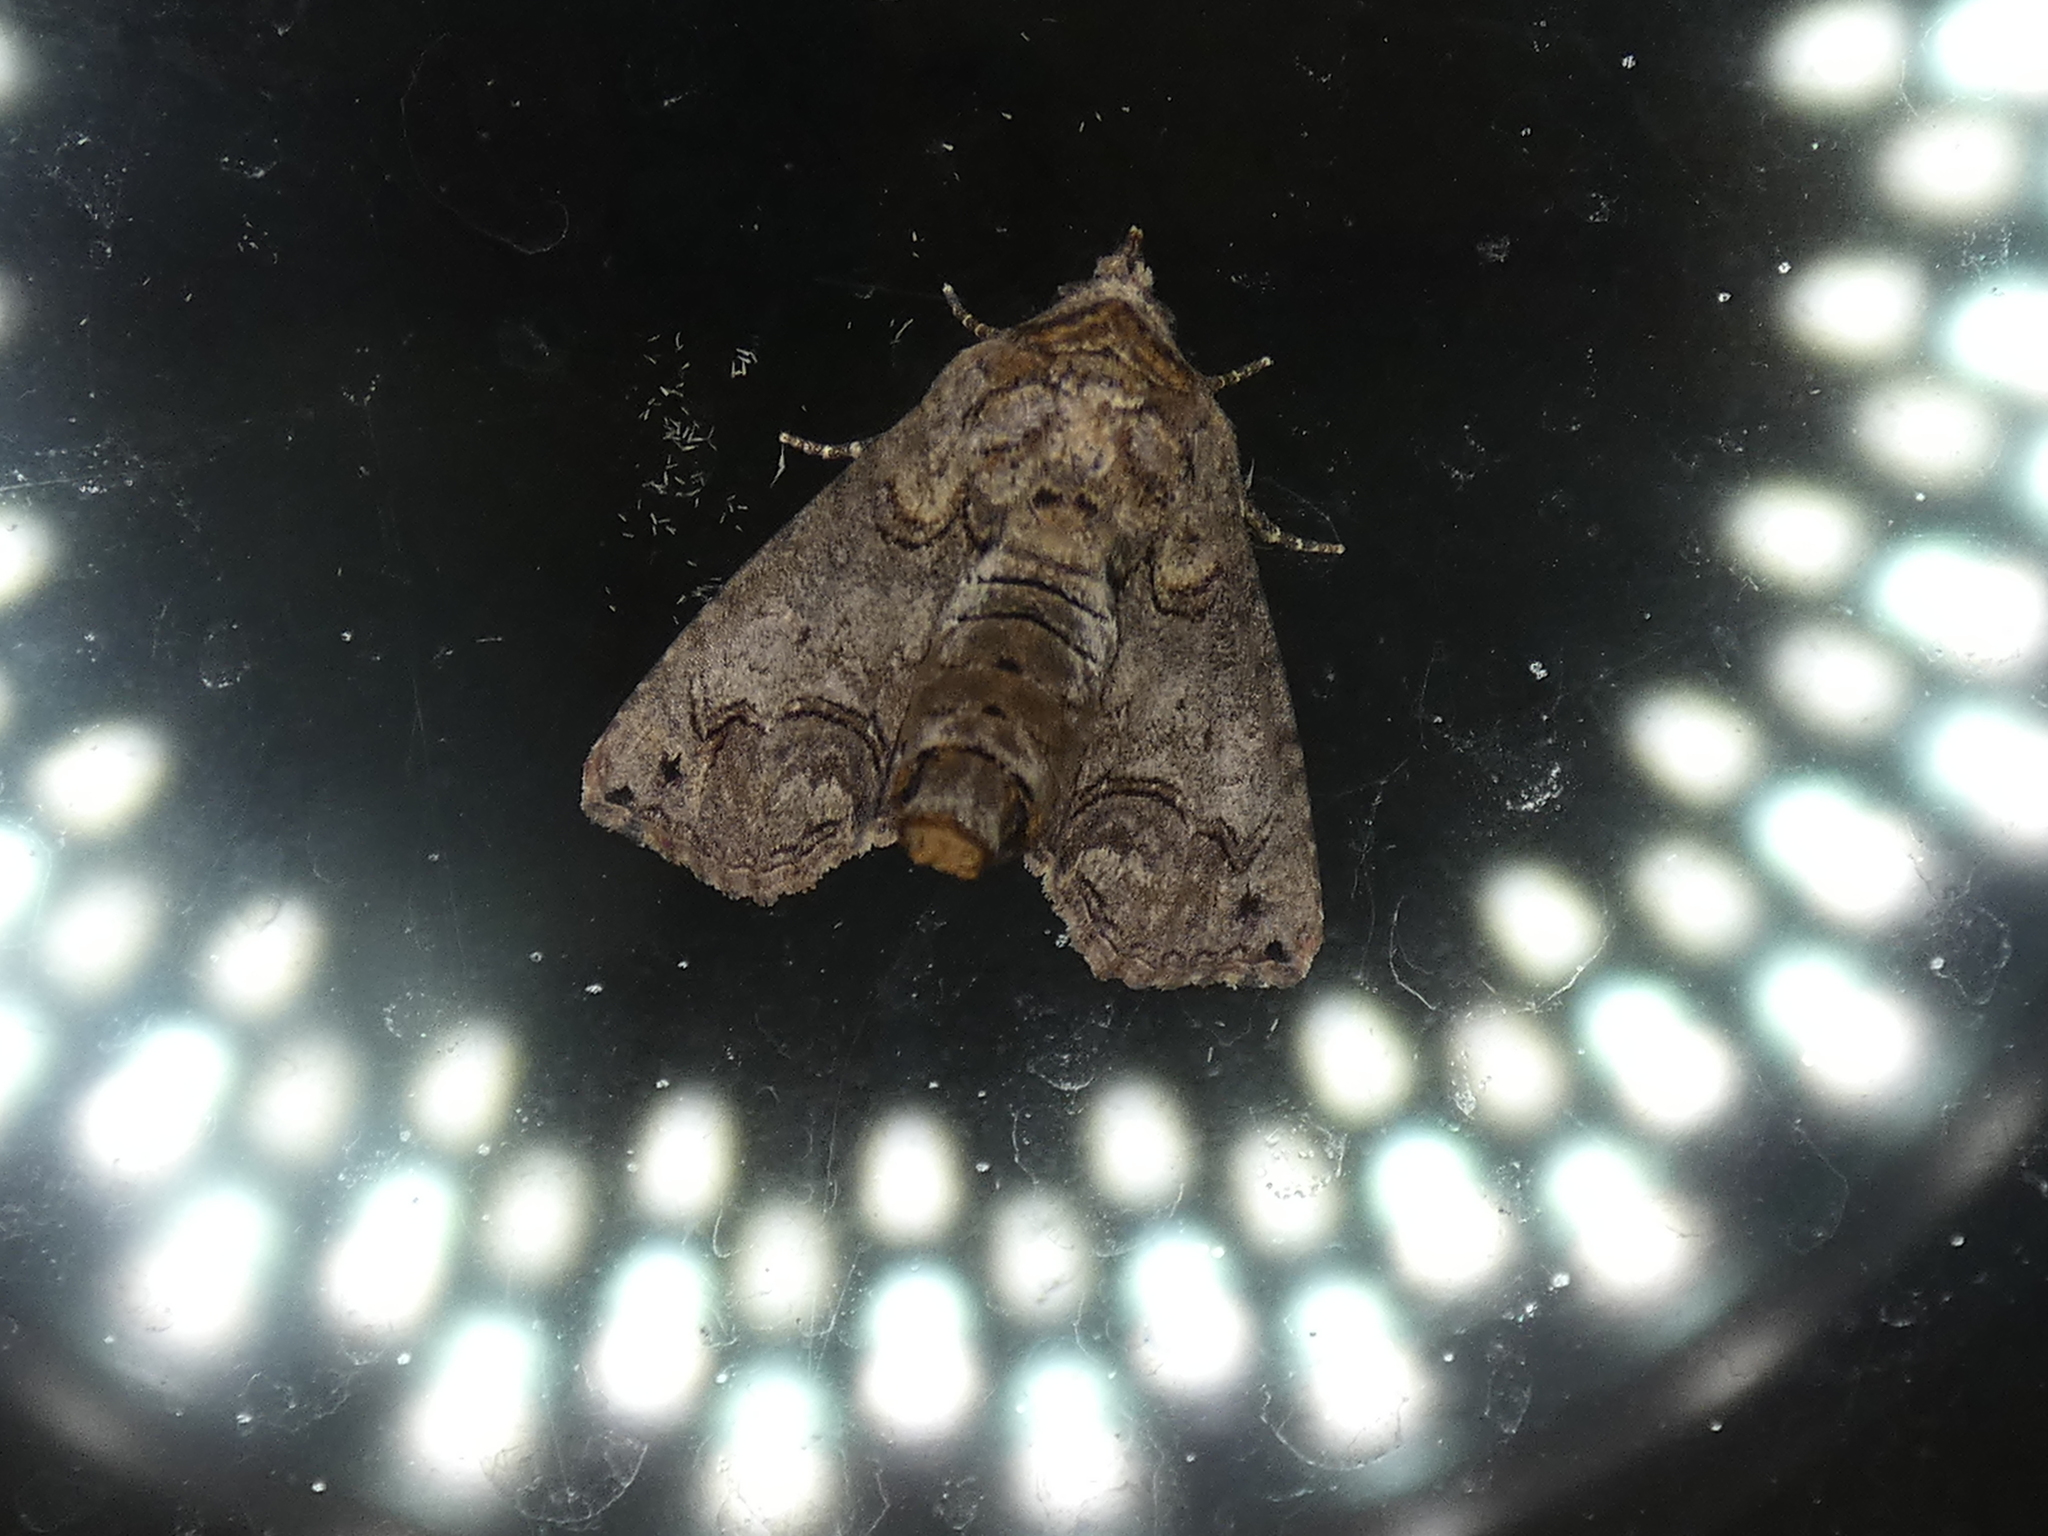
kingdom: Animalia
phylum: Arthropoda
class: Insecta
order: Lepidoptera
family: Euteliidae
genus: Paectes
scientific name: Paectes abrostoloides
